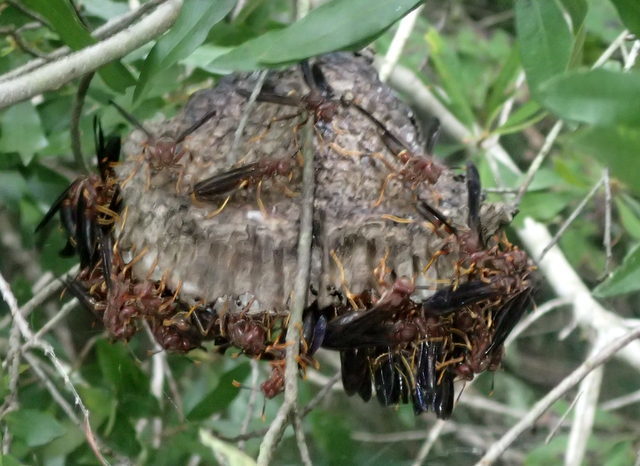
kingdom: Animalia
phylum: Arthropoda
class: Insecta
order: Hymenoptera
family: Eumenidae
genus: Polistes
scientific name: Polistes annularis
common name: Ringed paper wasp
